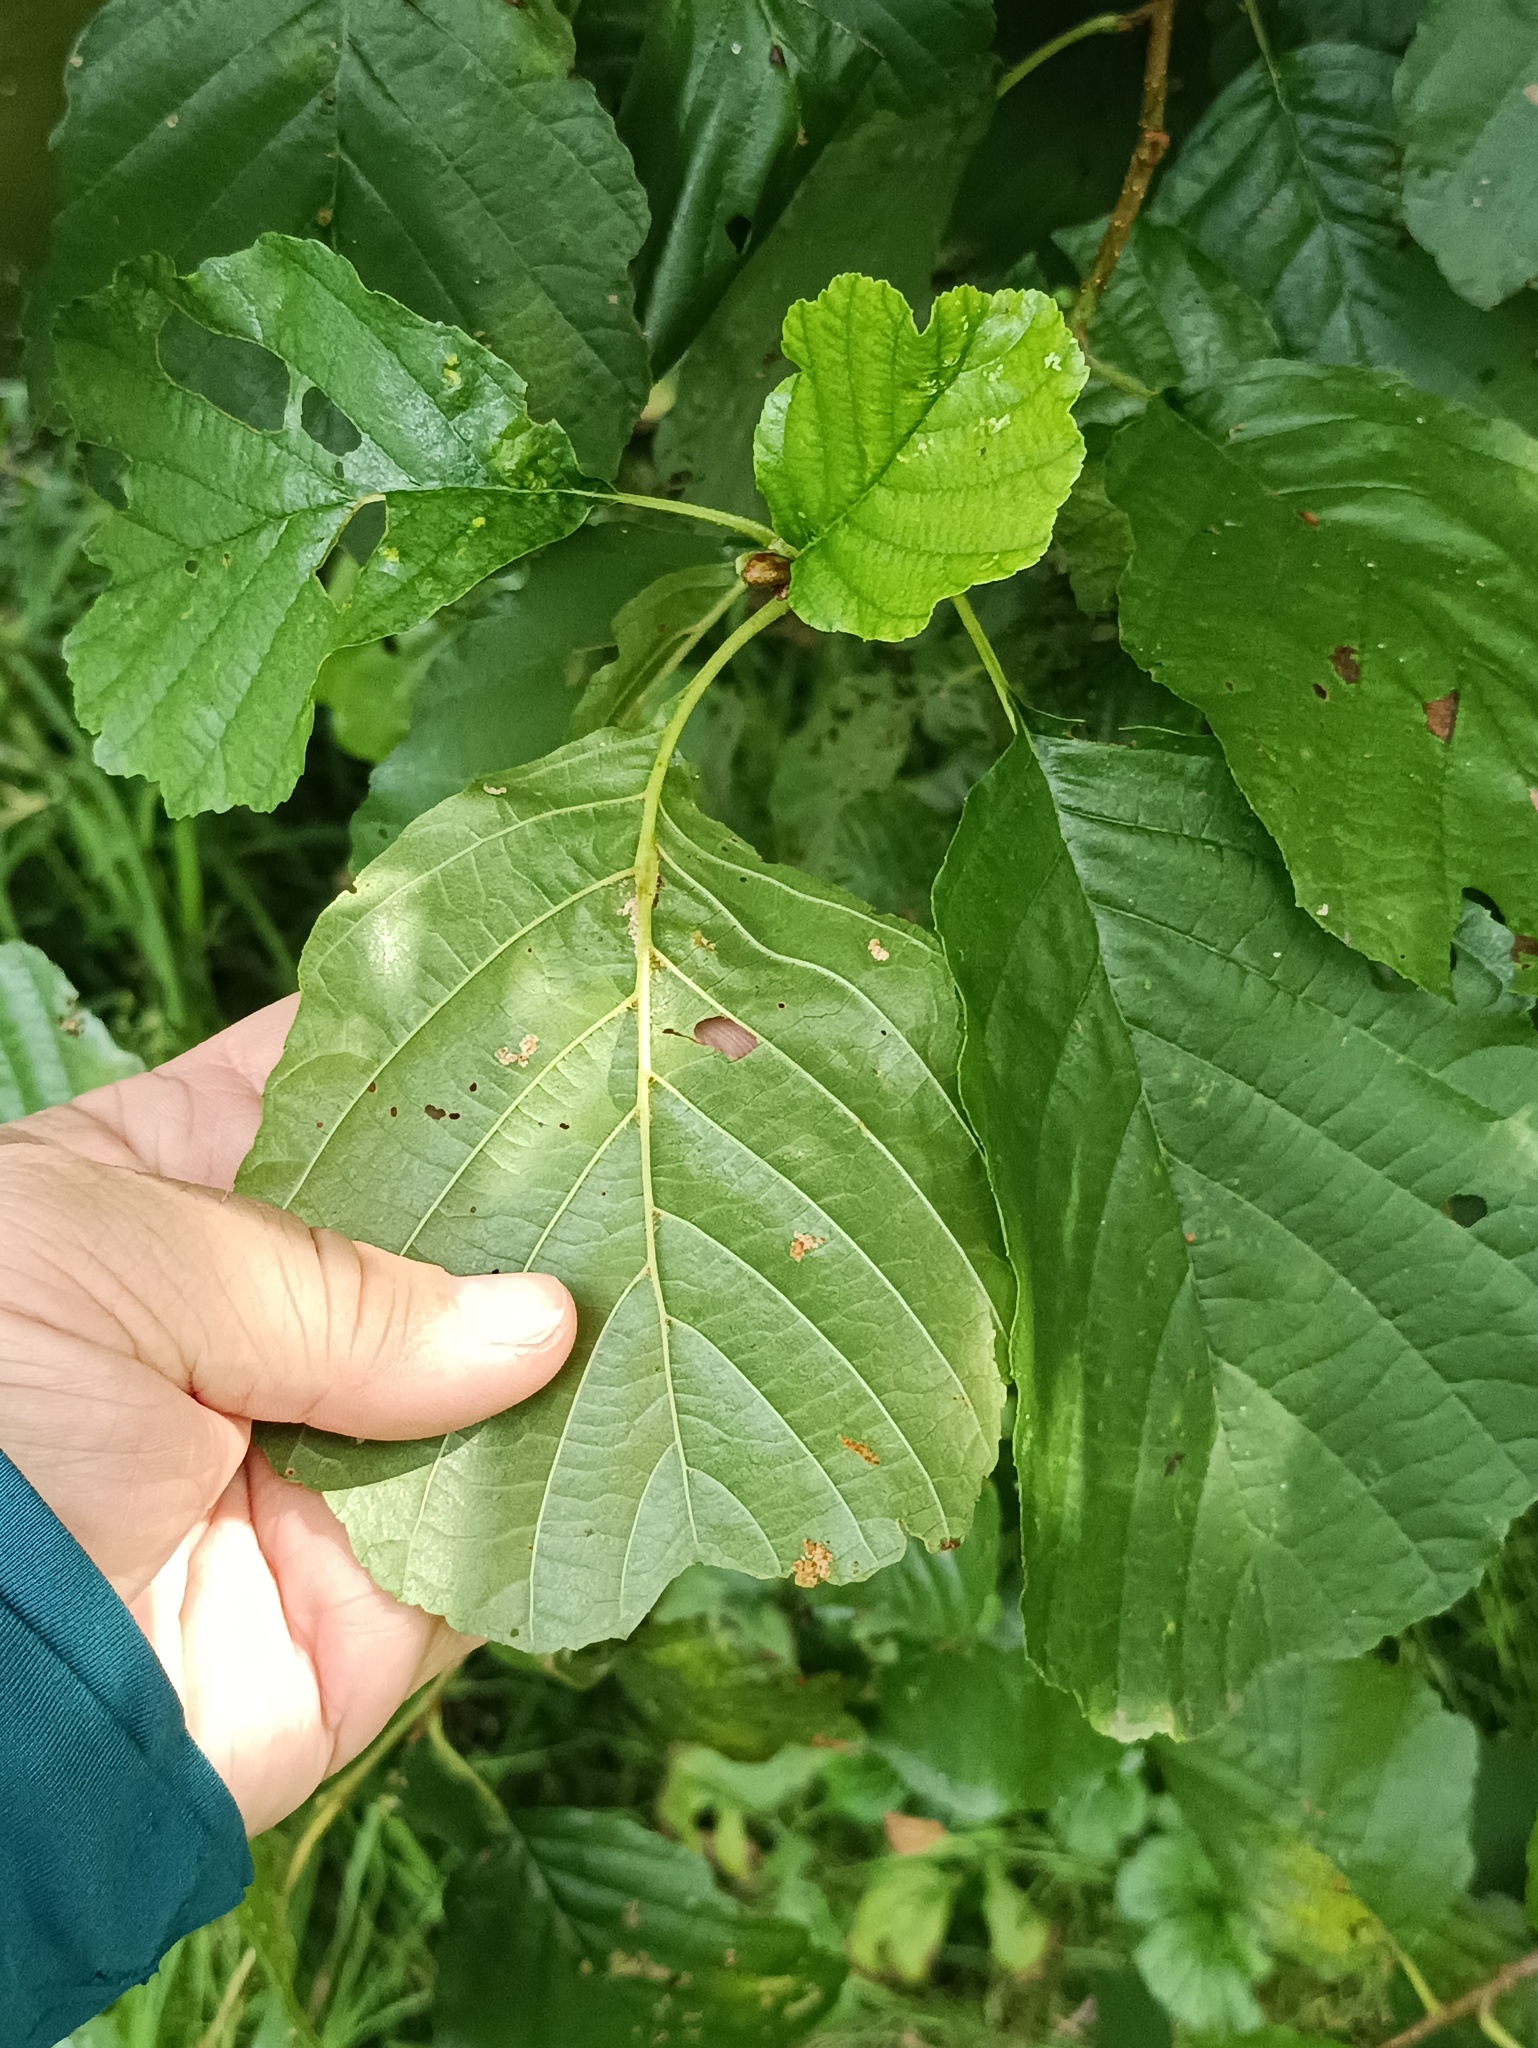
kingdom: Plantae
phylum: Tracheophyta
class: Magnoliopsida
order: Fagales
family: Betulaceae
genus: Alnus
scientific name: Alnus glutinosa
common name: Black alder
